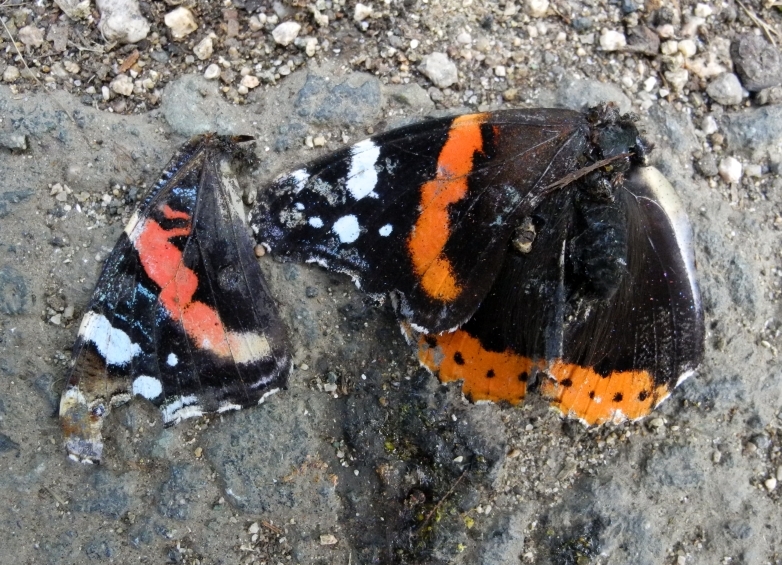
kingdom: Animalia
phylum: Arthropoda
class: Insecta
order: Lepidoptera
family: Nymphalidae
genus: Vanessa
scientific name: Vanessa atalanta
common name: Red admiral
